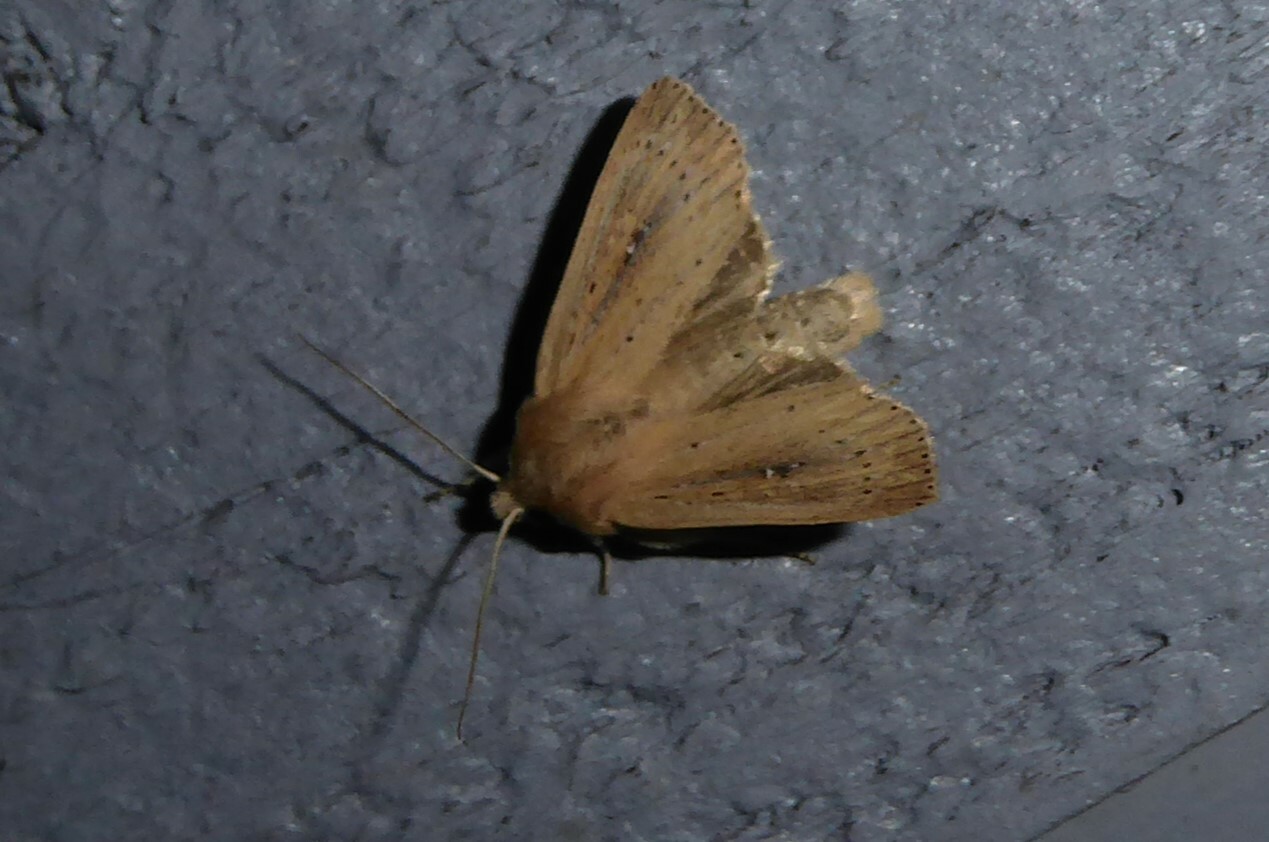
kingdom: Animalia
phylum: Arthropoda
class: Insecta
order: Lepidoptera
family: Noctuidae
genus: Ichneutica
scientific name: Ichneutica
